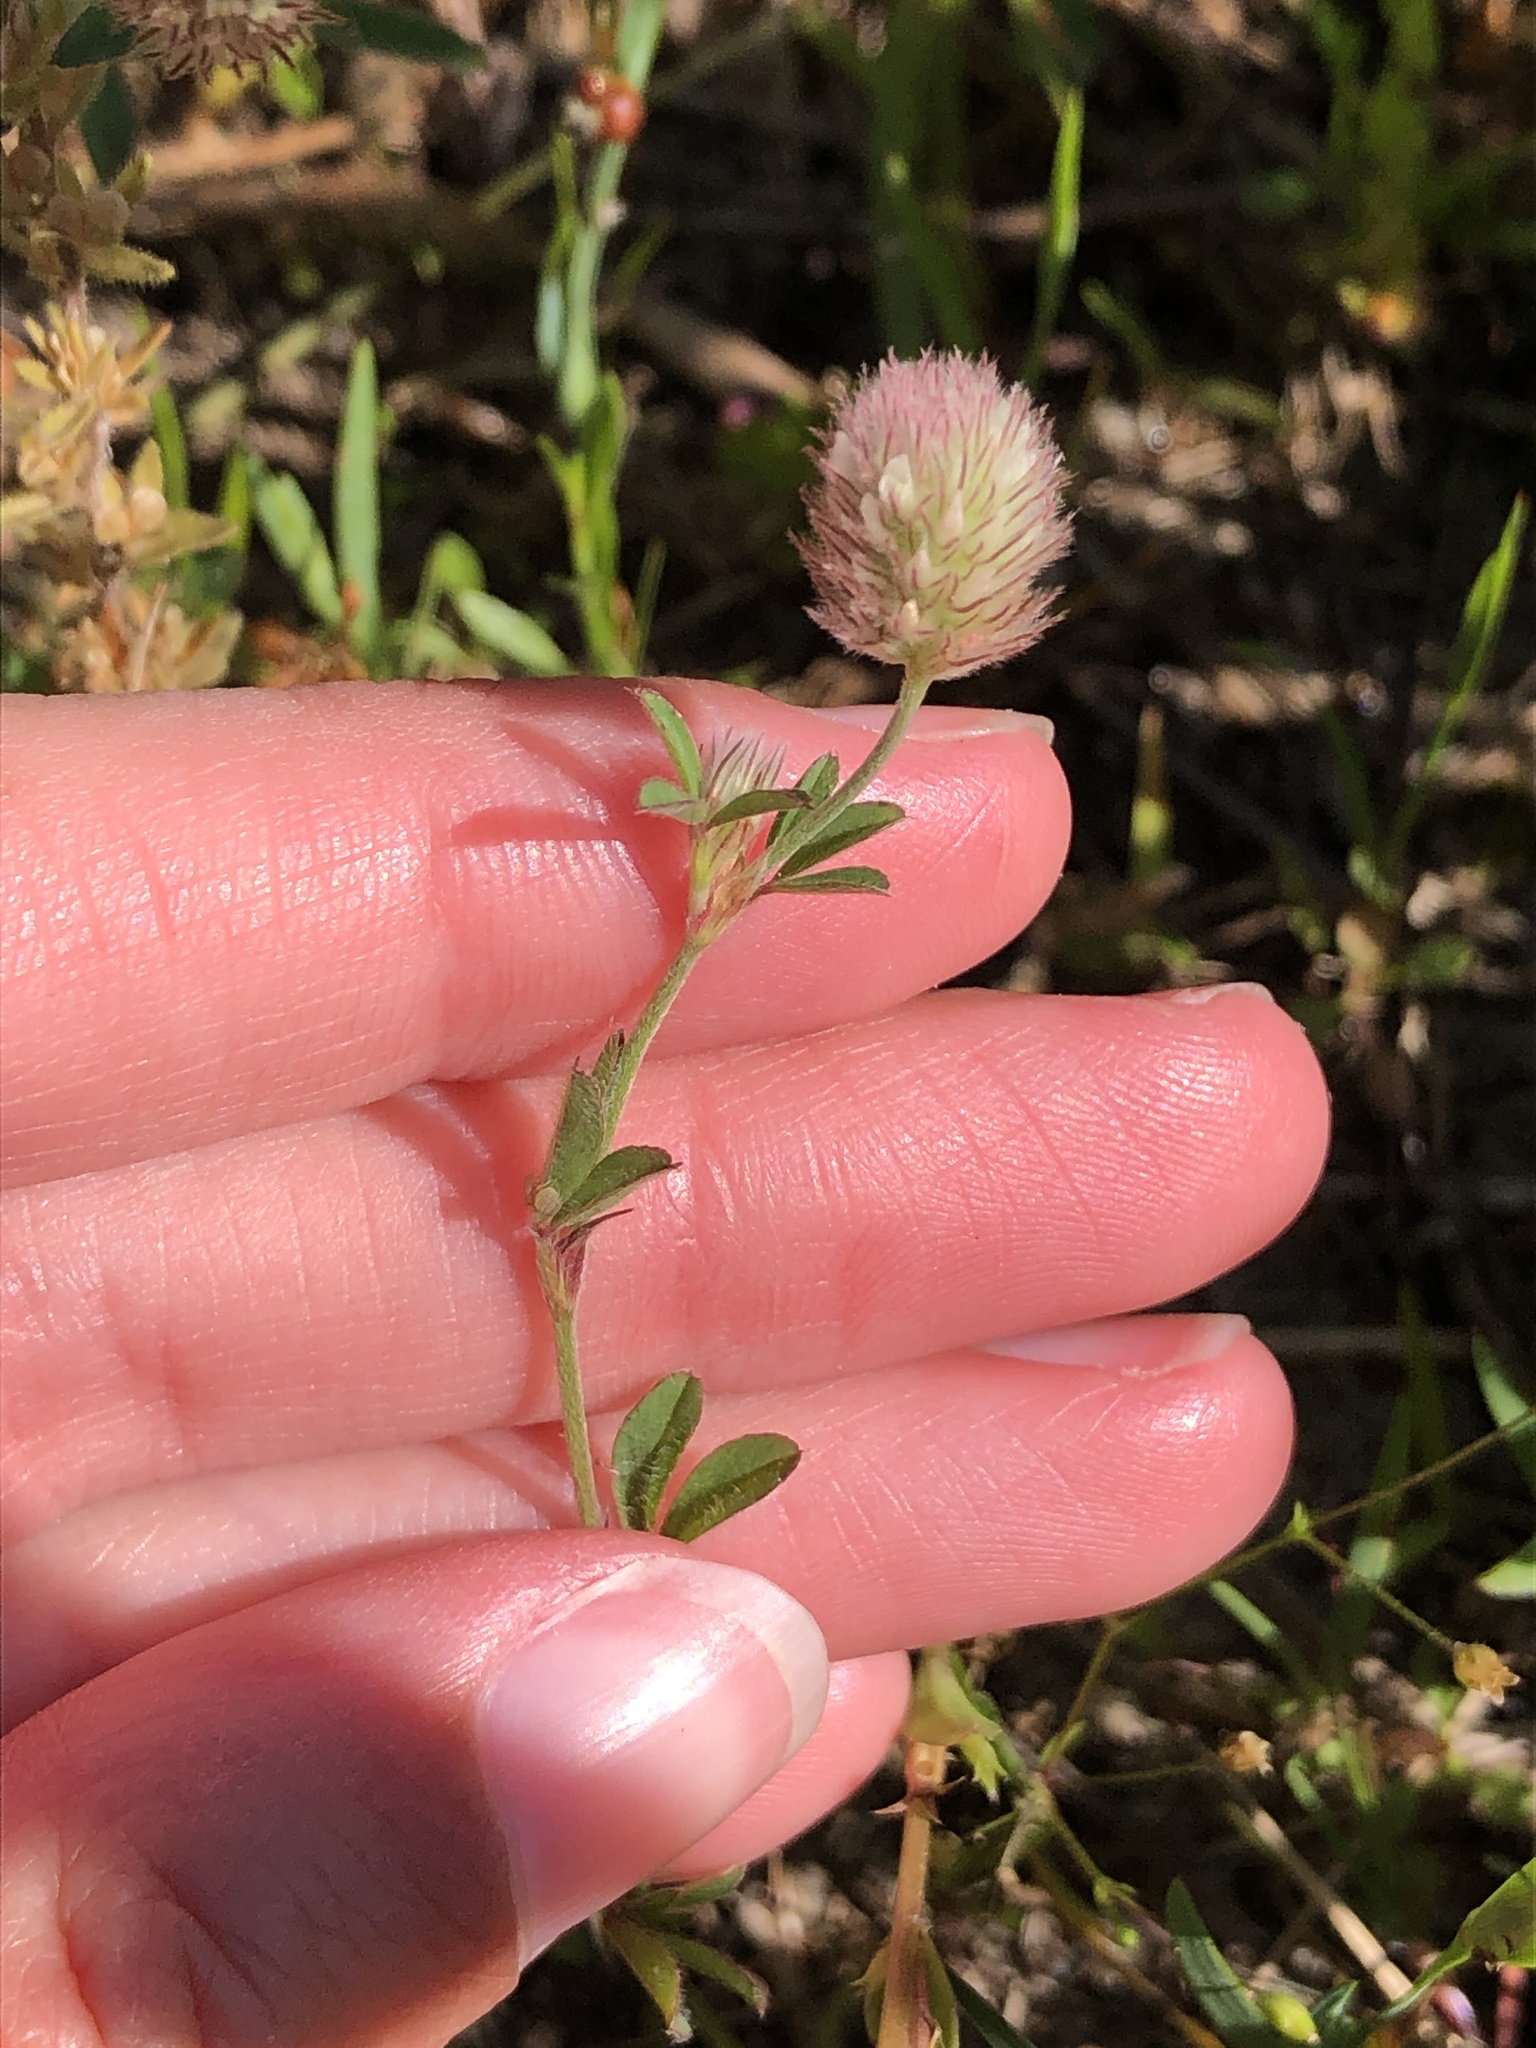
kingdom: Plantae
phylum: Tracheophyta
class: Magnoliopsida
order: Fabales
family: Fabaceae
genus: Trifolium
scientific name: Trifolium arvense
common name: Hare's-foot clover
